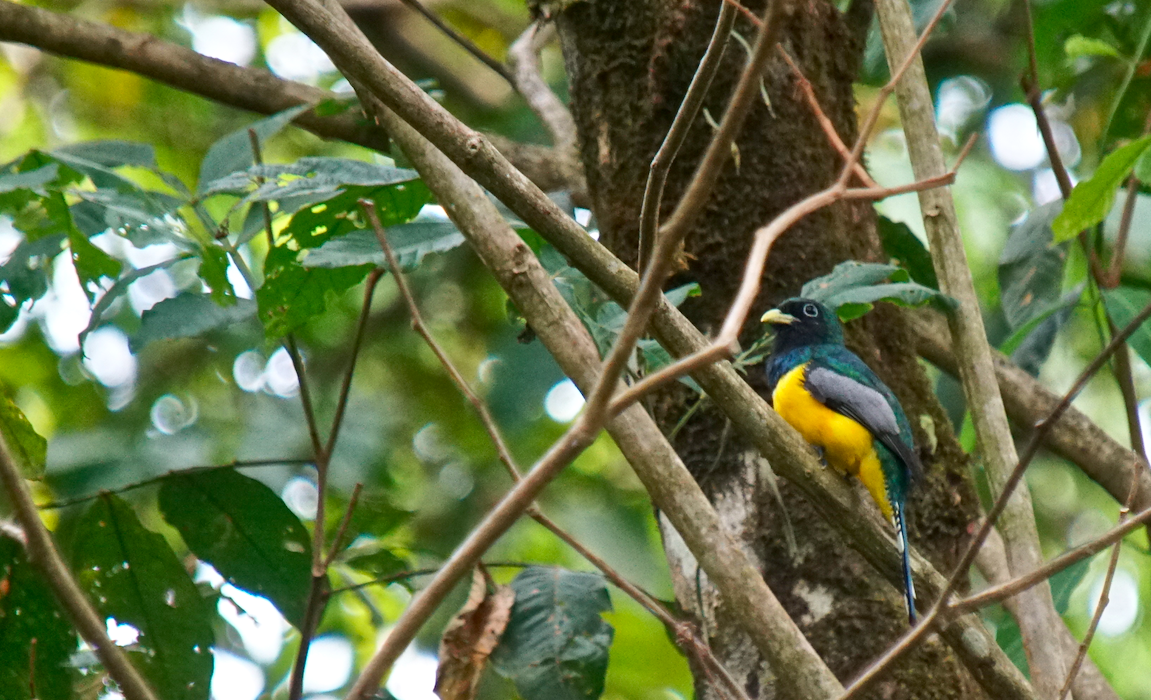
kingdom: Animalia
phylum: Chordata
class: Aves
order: Trogoniformes
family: Trogonidae
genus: Trogon
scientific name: Trogon rufus
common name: Black-throated trogon
